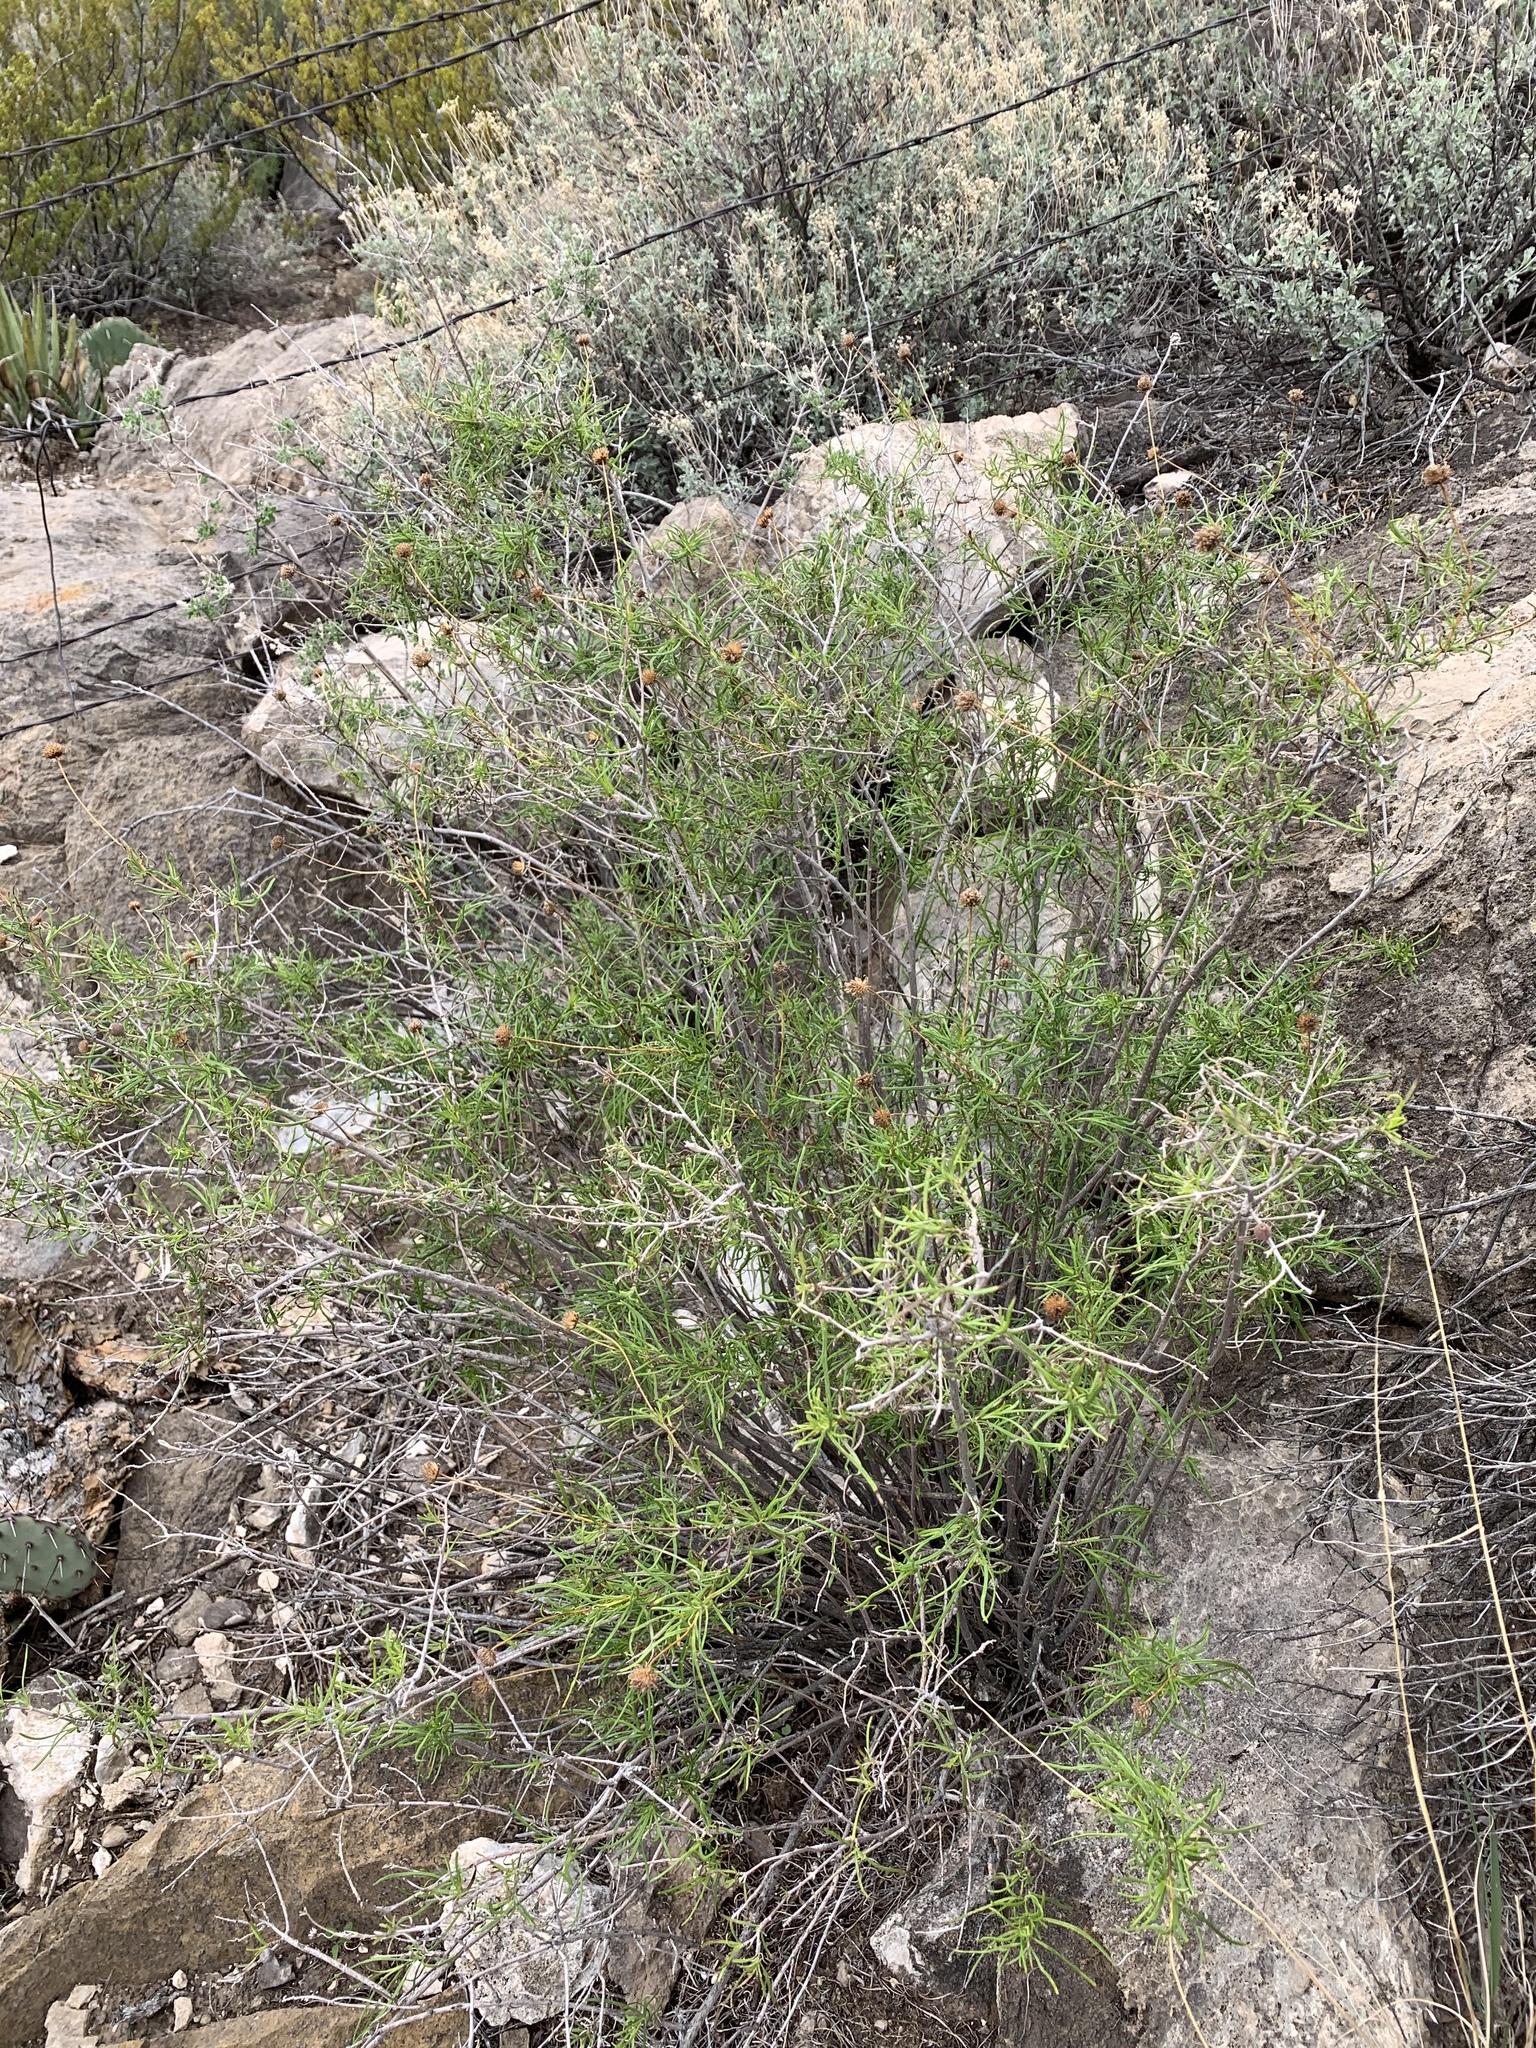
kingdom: Plantae
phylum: Tracheophyta
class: Magnoliopsida
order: Asterales
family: Asteraceae
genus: Sidneya
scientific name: Sidneya tenuifolia
